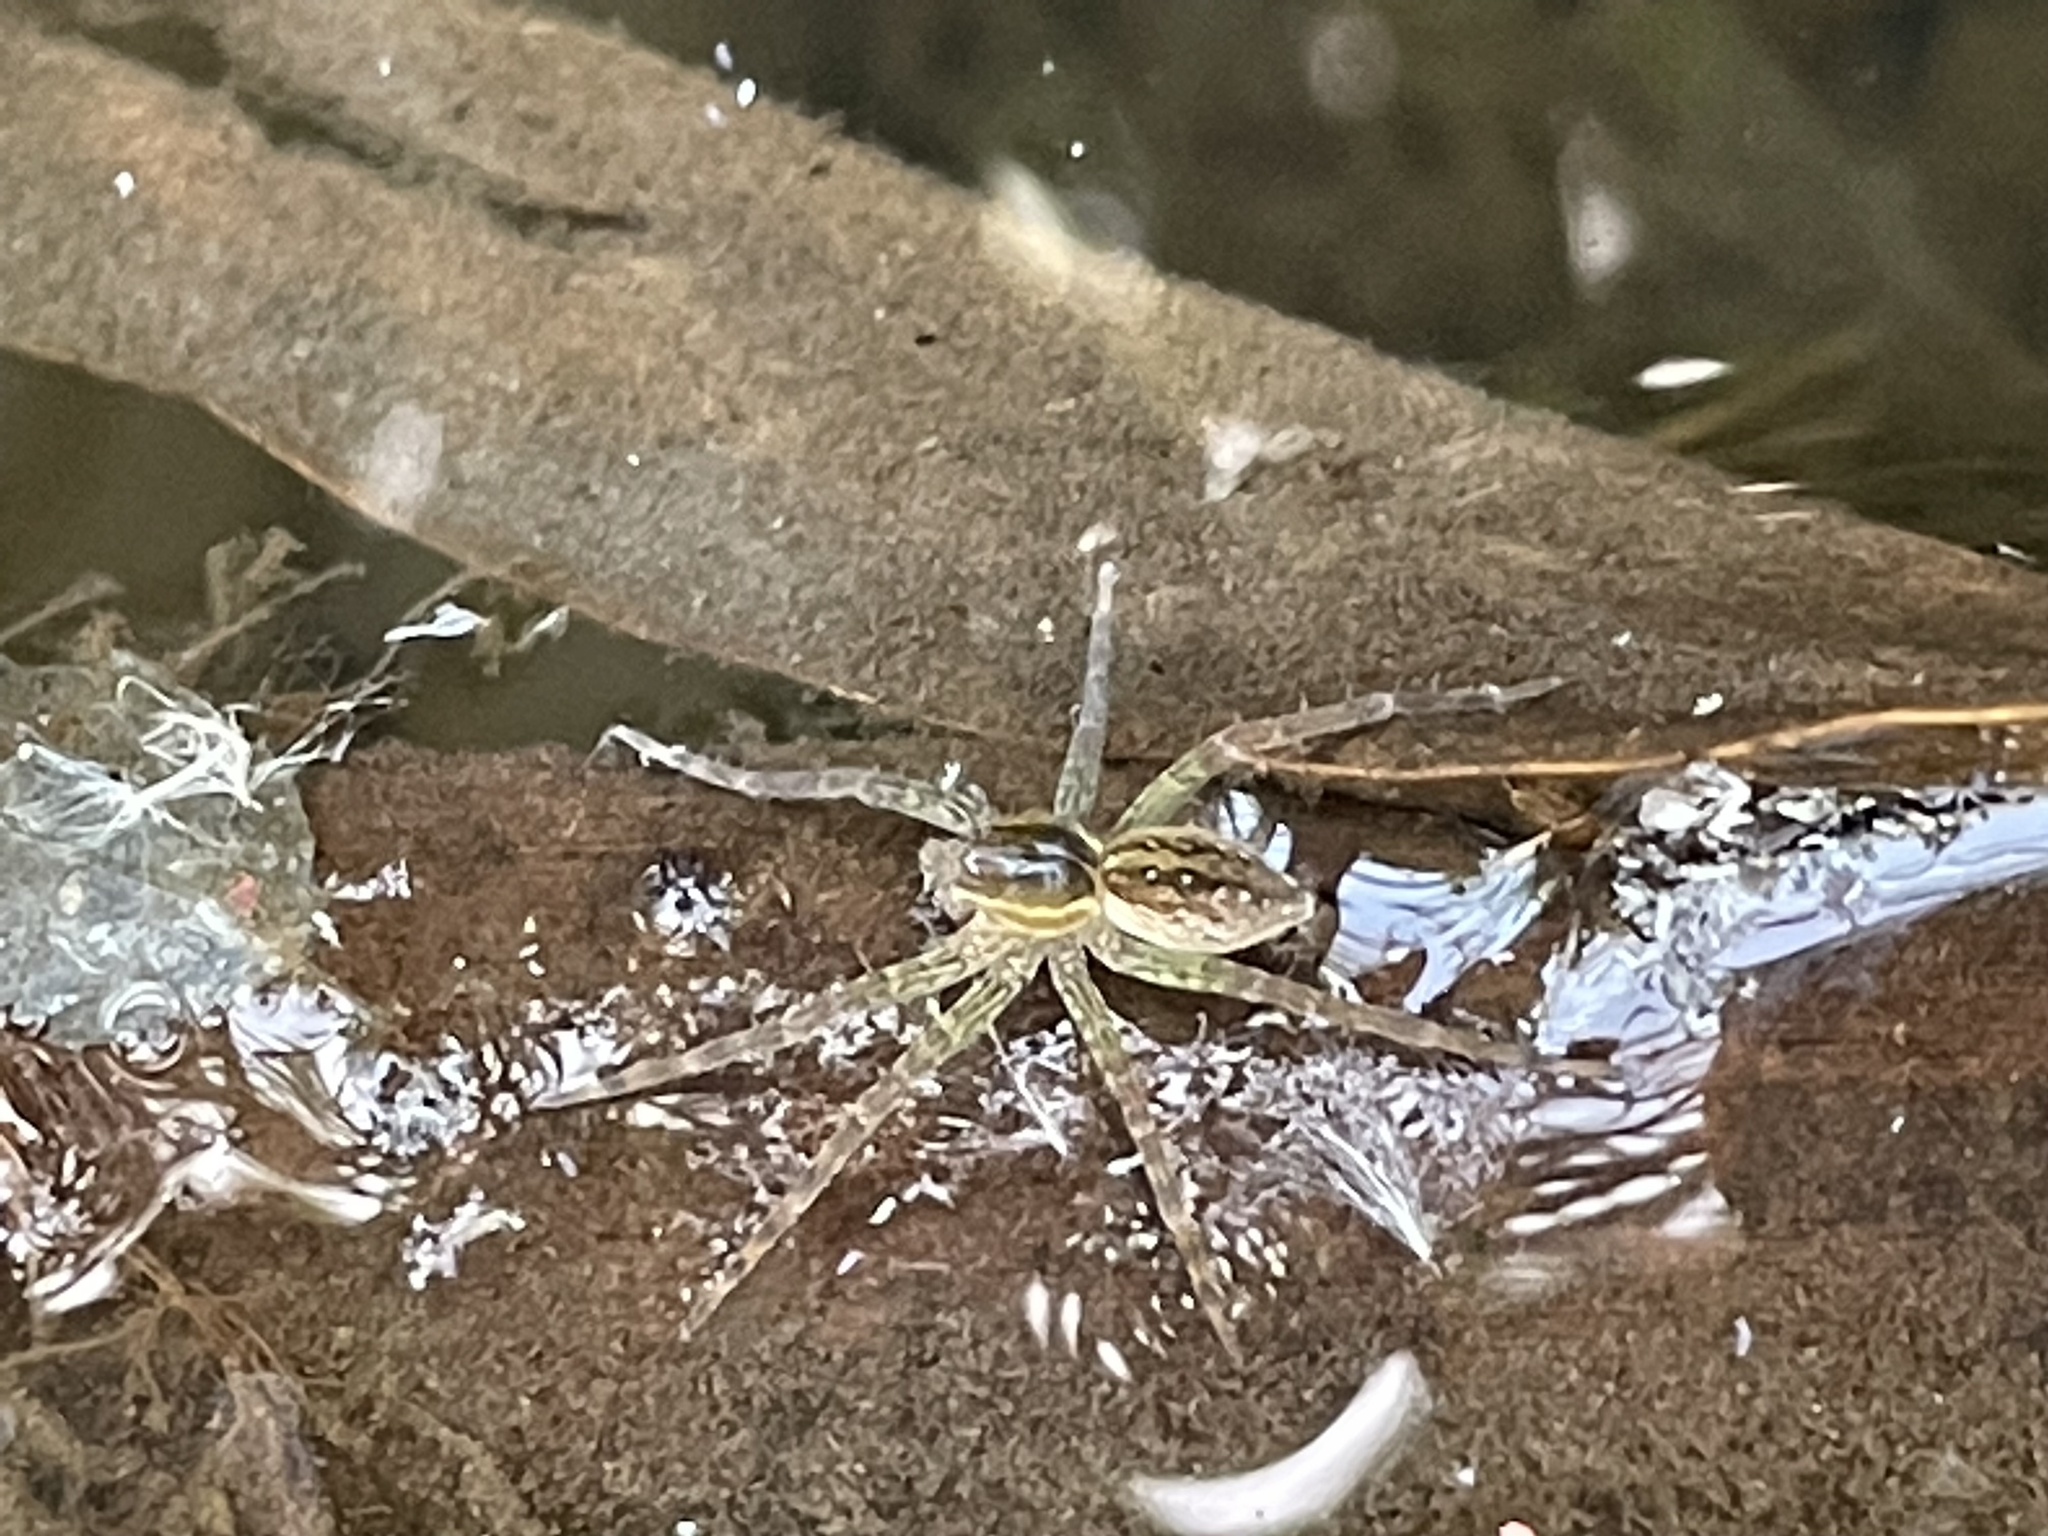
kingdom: Animalia
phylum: Arthropoda
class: Arachnida
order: Araneae
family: Pisauridae
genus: Dolomedes
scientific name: Dolomedes triton
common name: Six-spotted fishing spider
